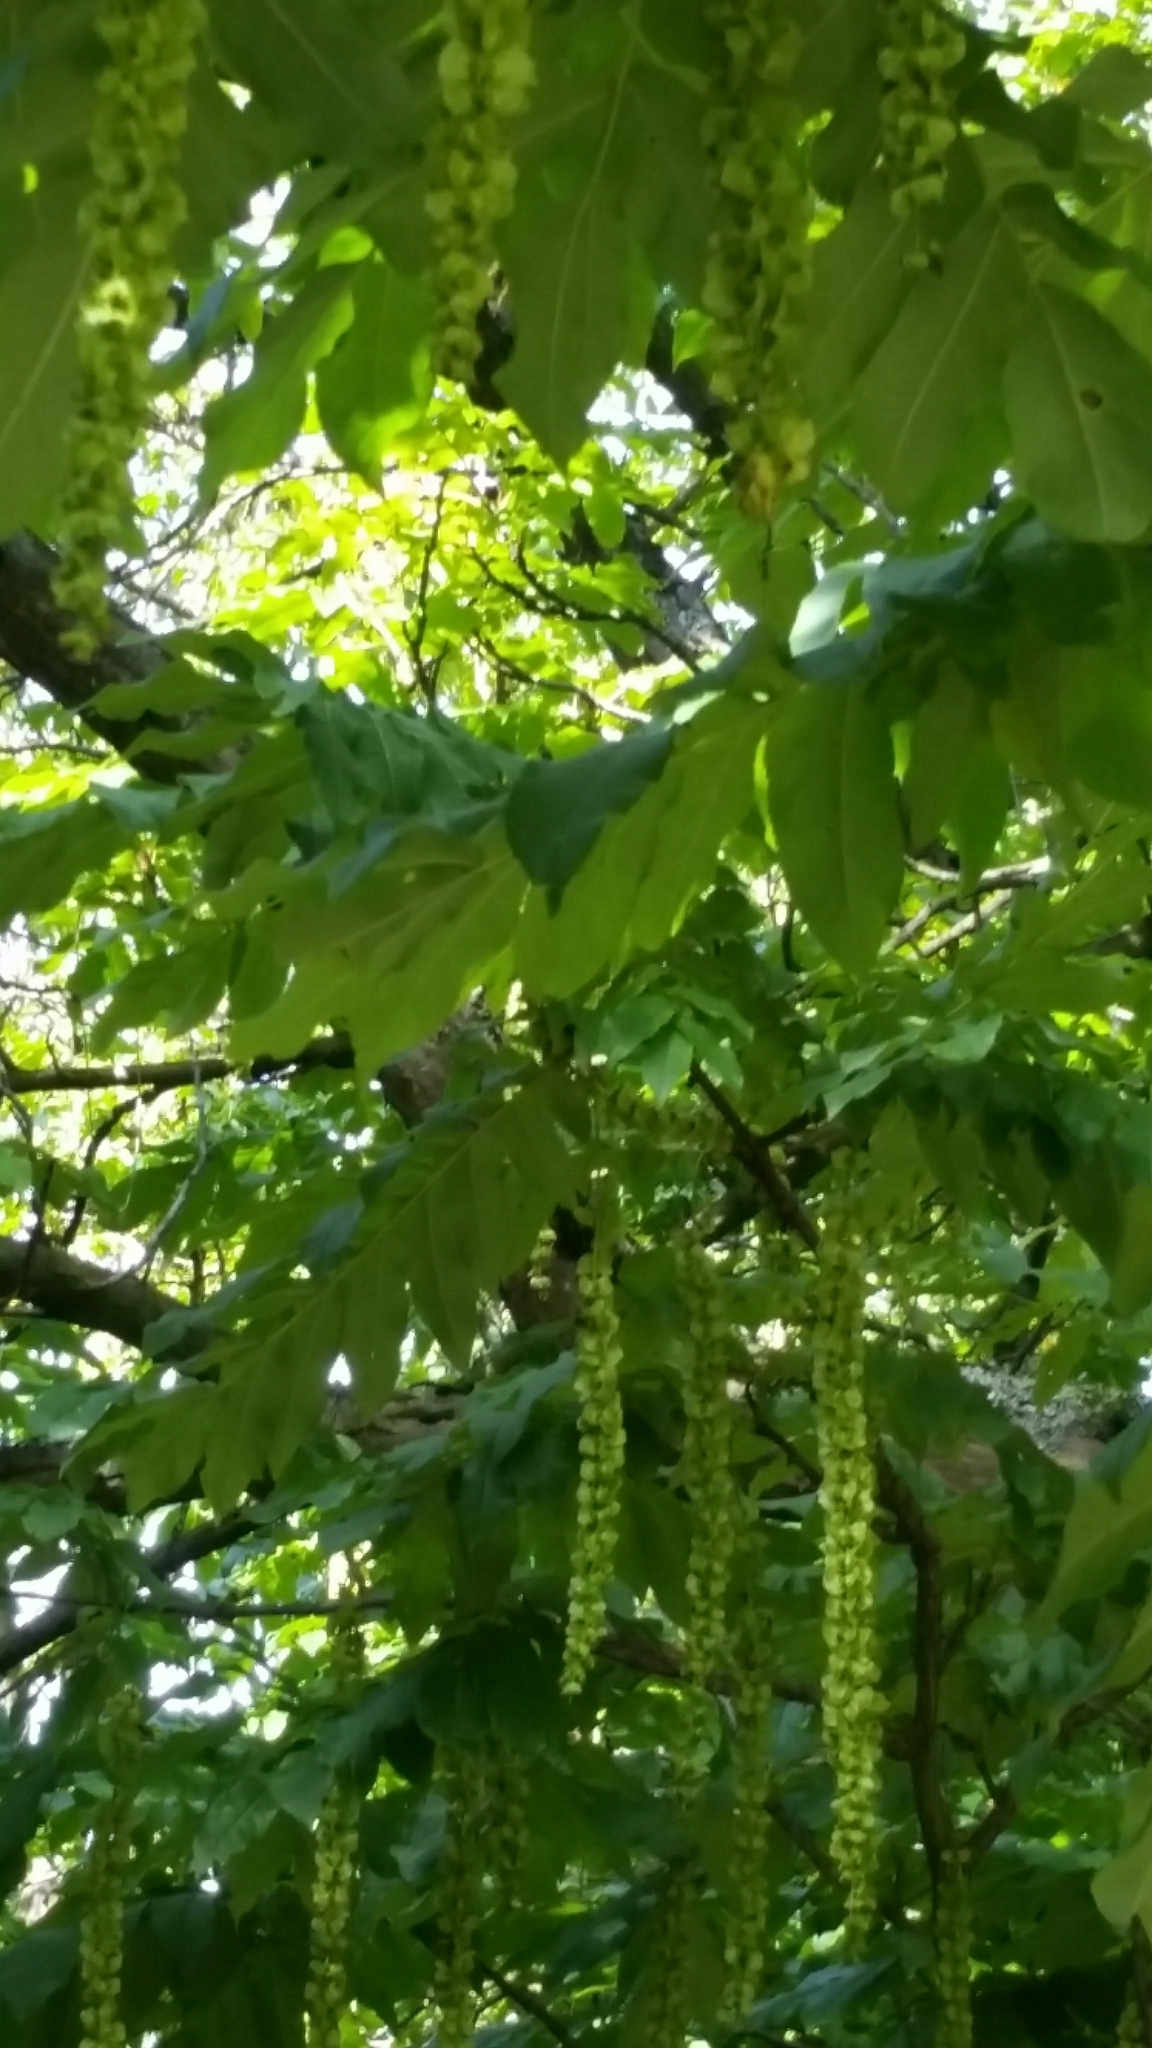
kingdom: Plantae
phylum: Tracheophyta
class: Magnoliopsida
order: Fagales
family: Juglandaceae
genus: Pterocarya
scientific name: Pterocarya fraxinifolia
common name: Caucasian wingnut
